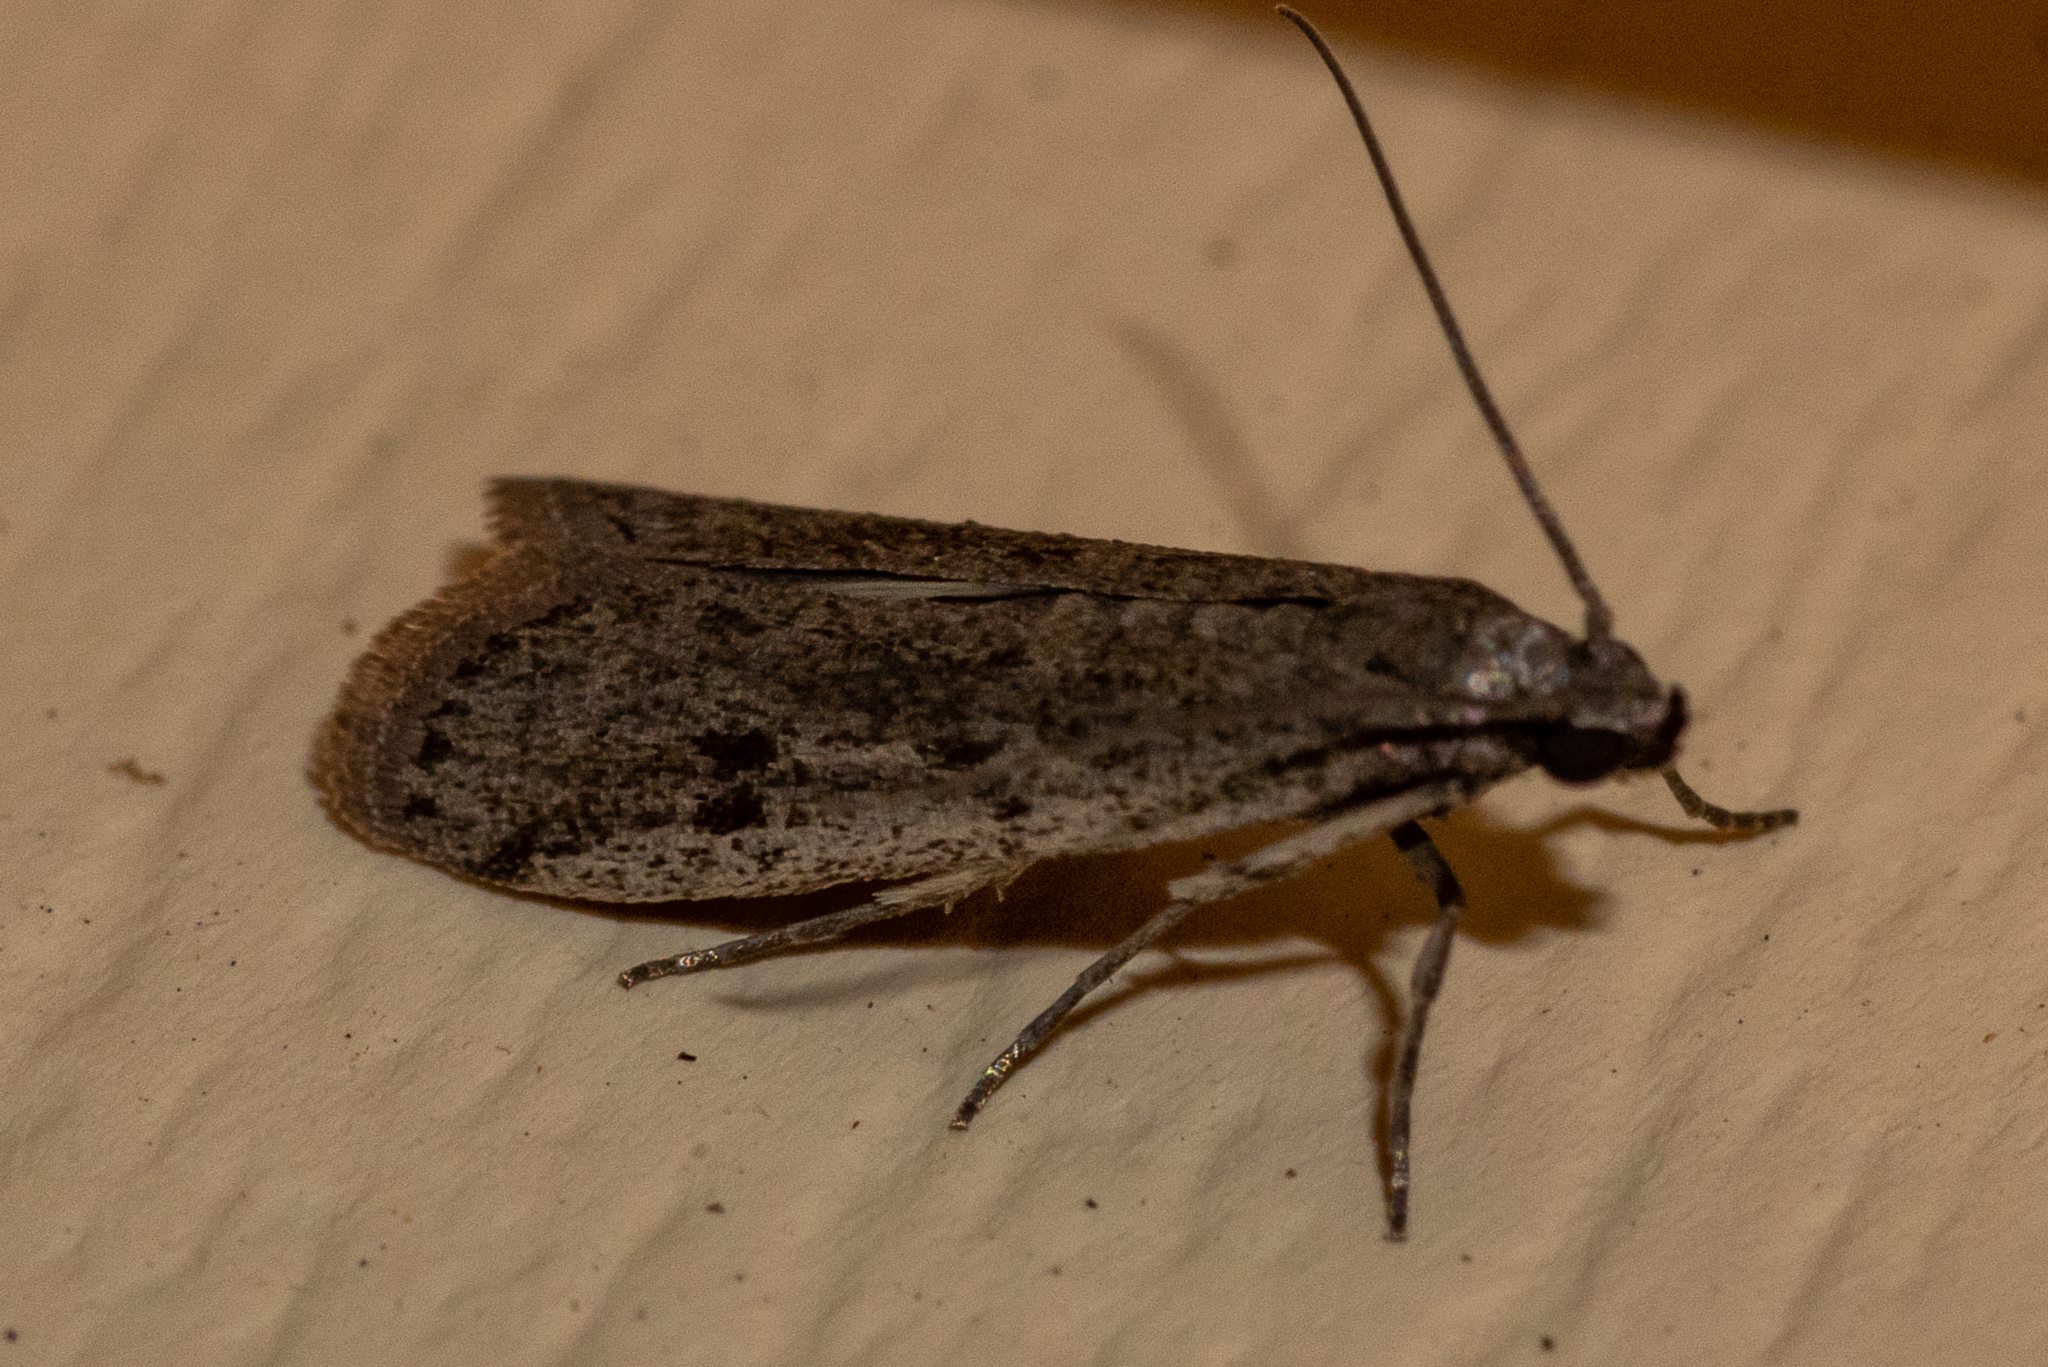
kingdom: Animalia
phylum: Arthropoda
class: Insecta
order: Lepidoptera
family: Pyralidae
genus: Phycitodes
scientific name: Phycitodes mucidellus
